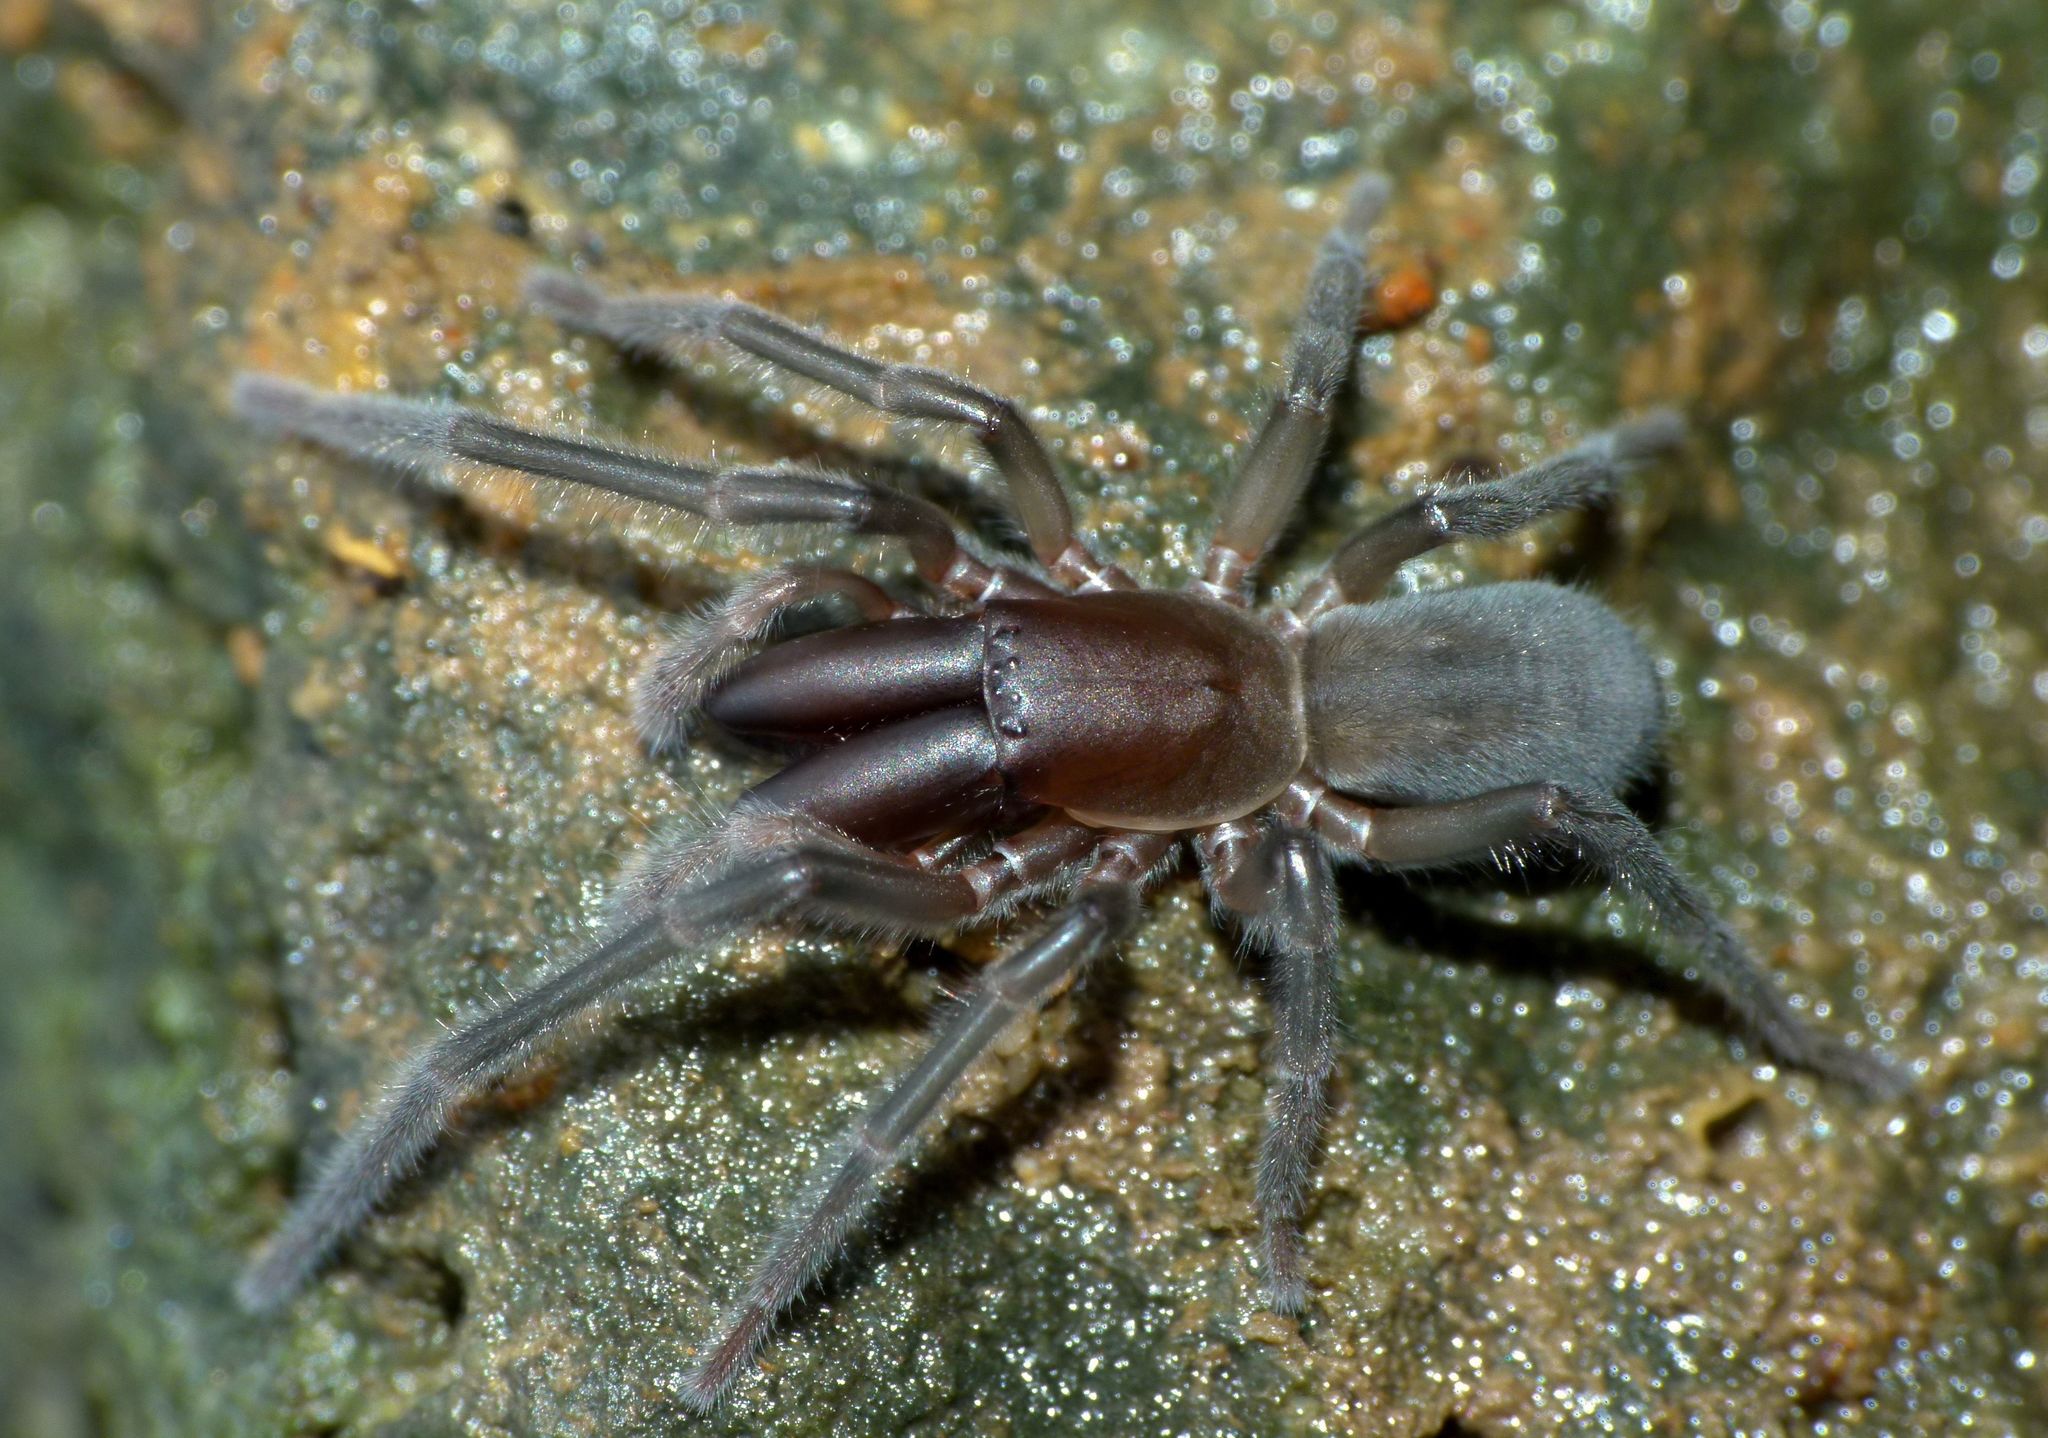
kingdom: Animalia
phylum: Arthropoda
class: Arachnida
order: Araneae
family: Desidae
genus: Desis
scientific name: Desis marina
